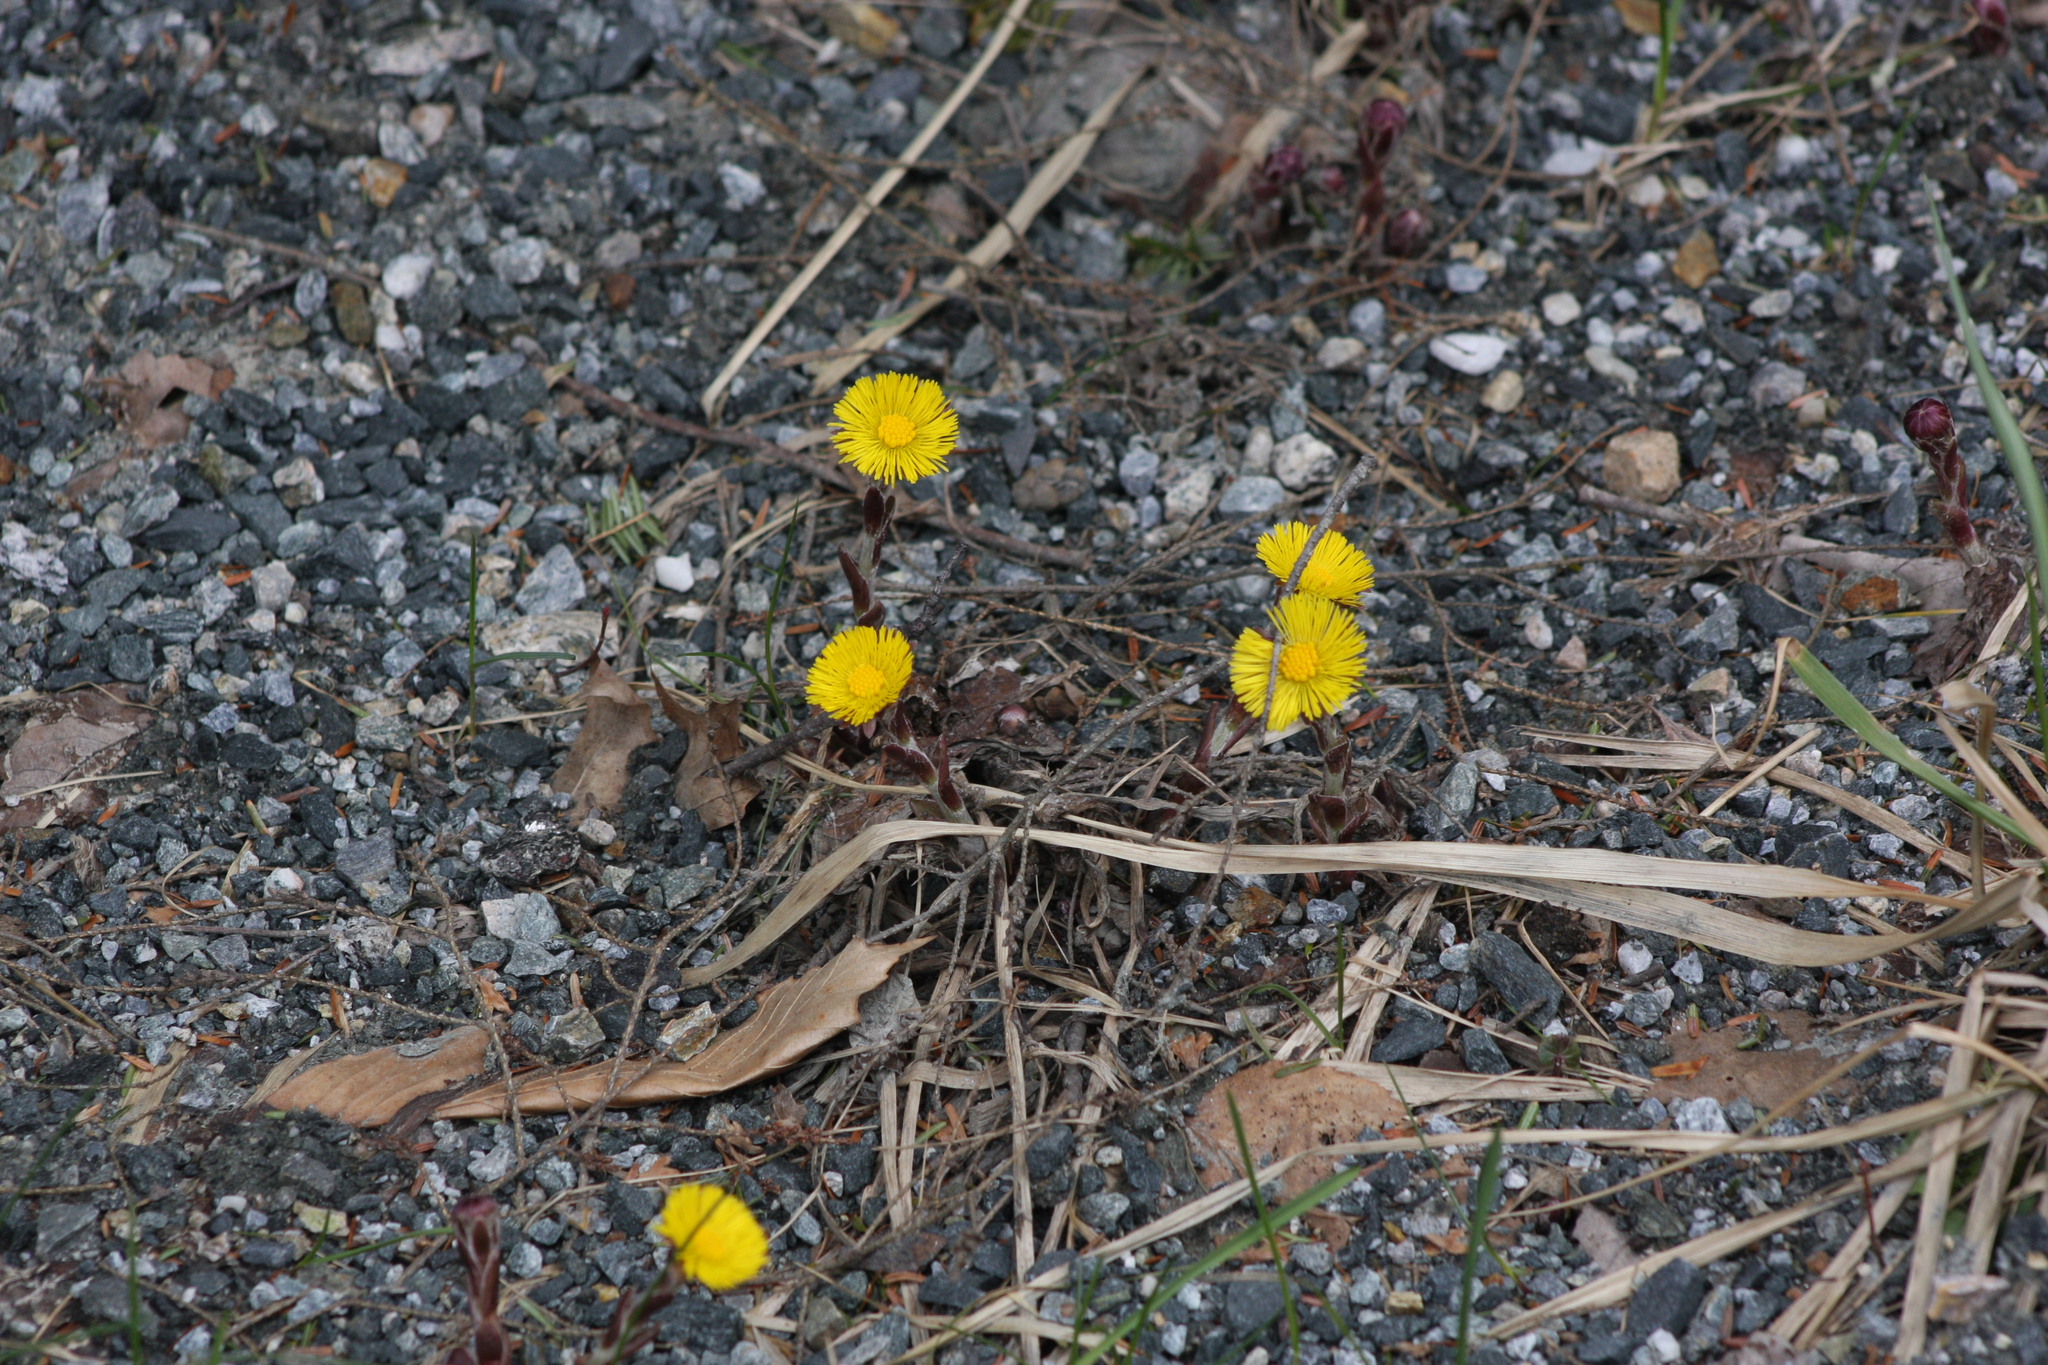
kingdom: Plantae
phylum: Tracheophyta
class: Magnoliopsida
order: Asterales
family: Asteraceae
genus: Tussilago
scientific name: Tussilago farfara
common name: Coltsfoot
